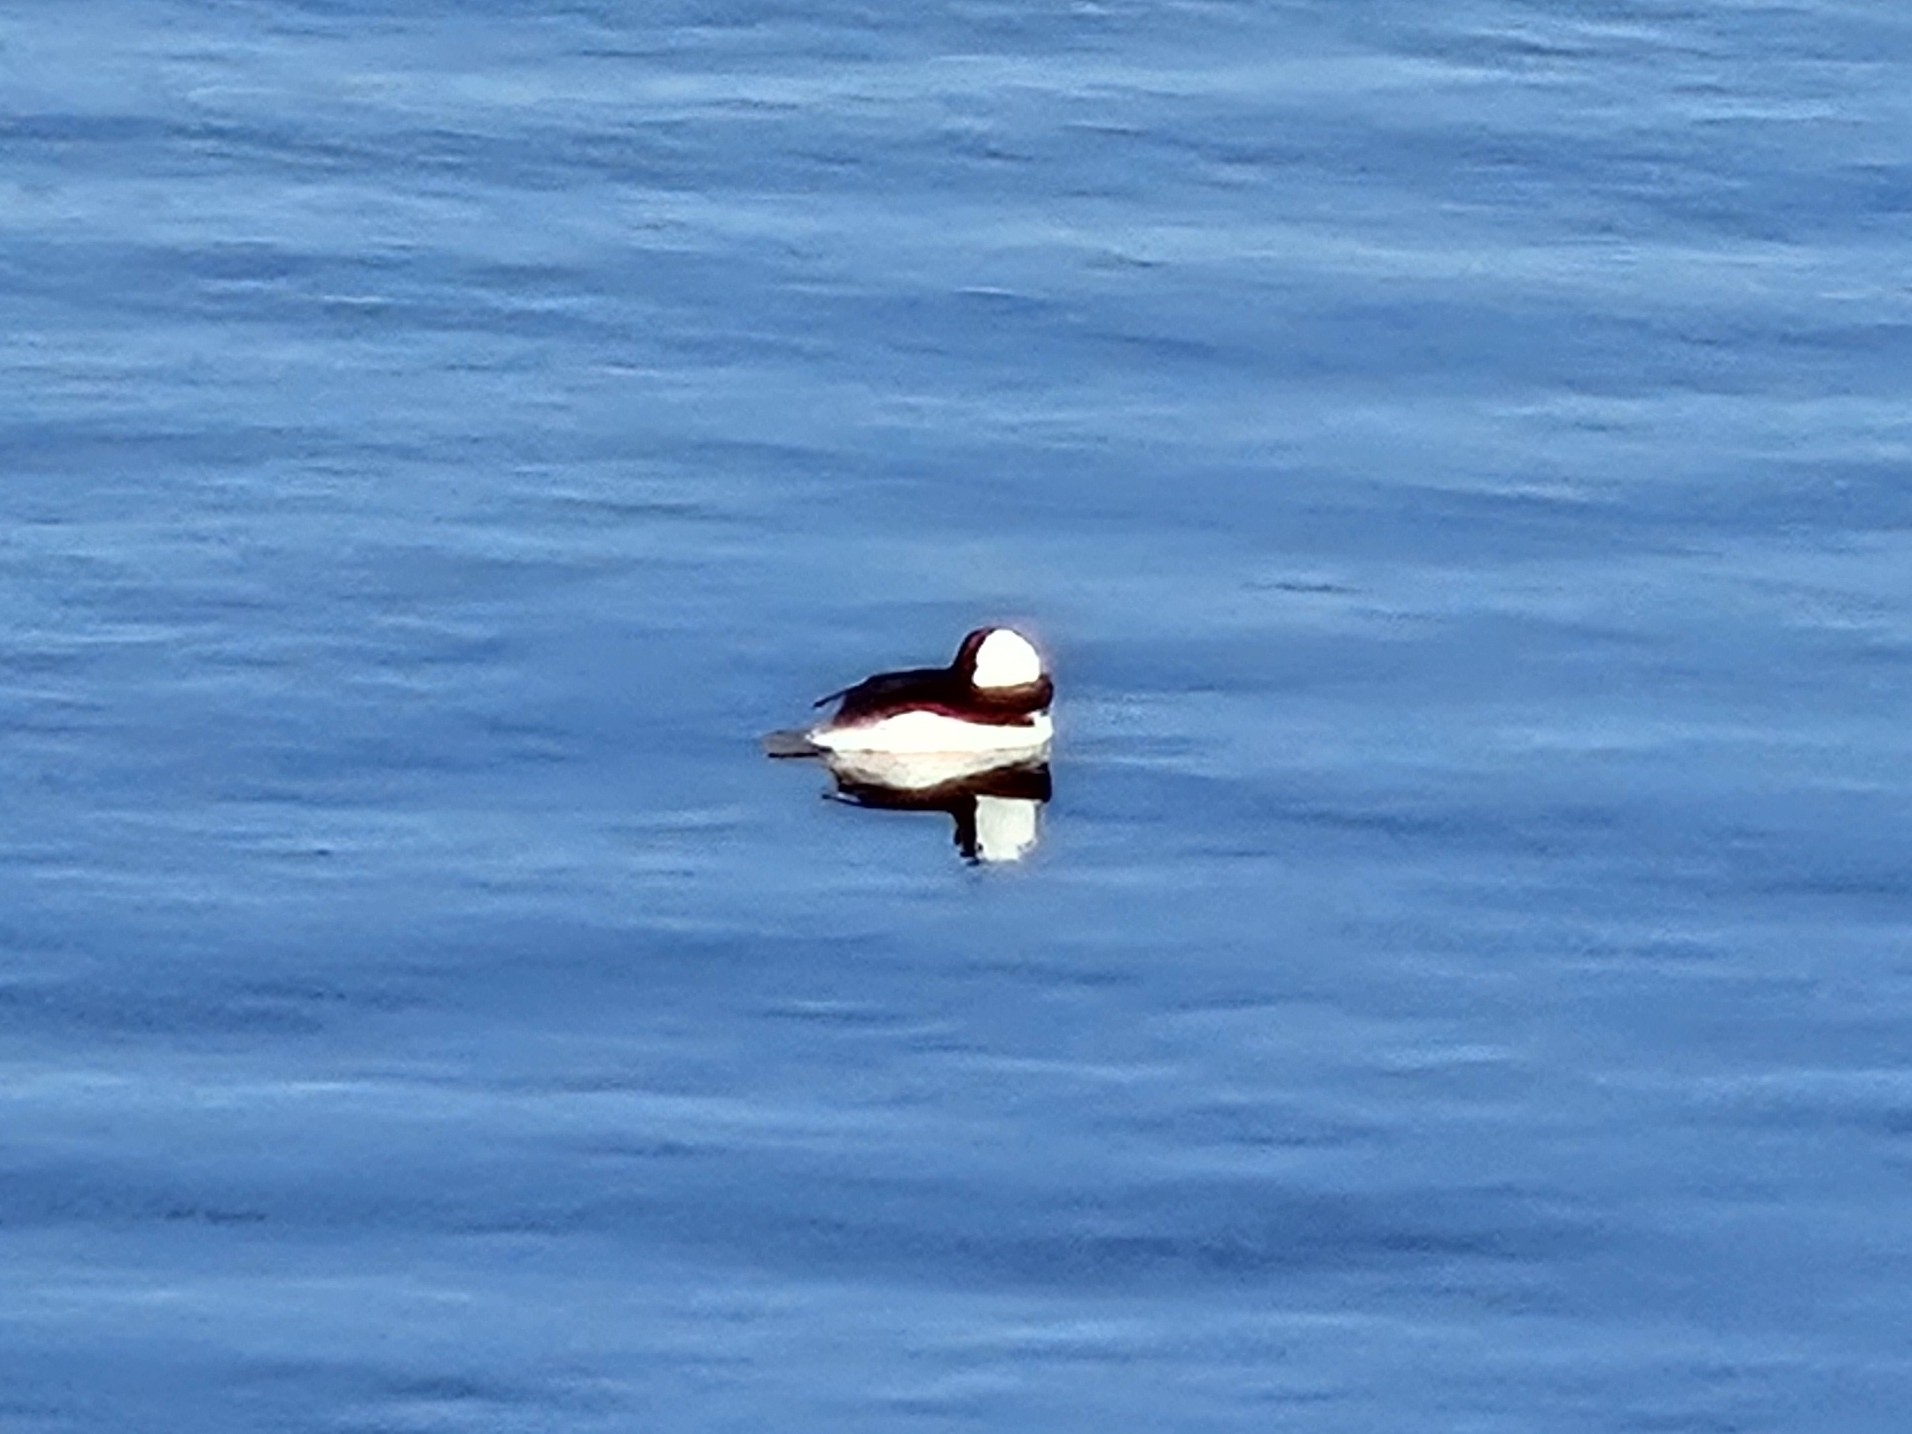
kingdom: Animalia
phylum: Chordata
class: Aves
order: Anseriformes
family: Anatidae
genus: Bucephala
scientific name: Bucephala albeola
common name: Bufflehead
